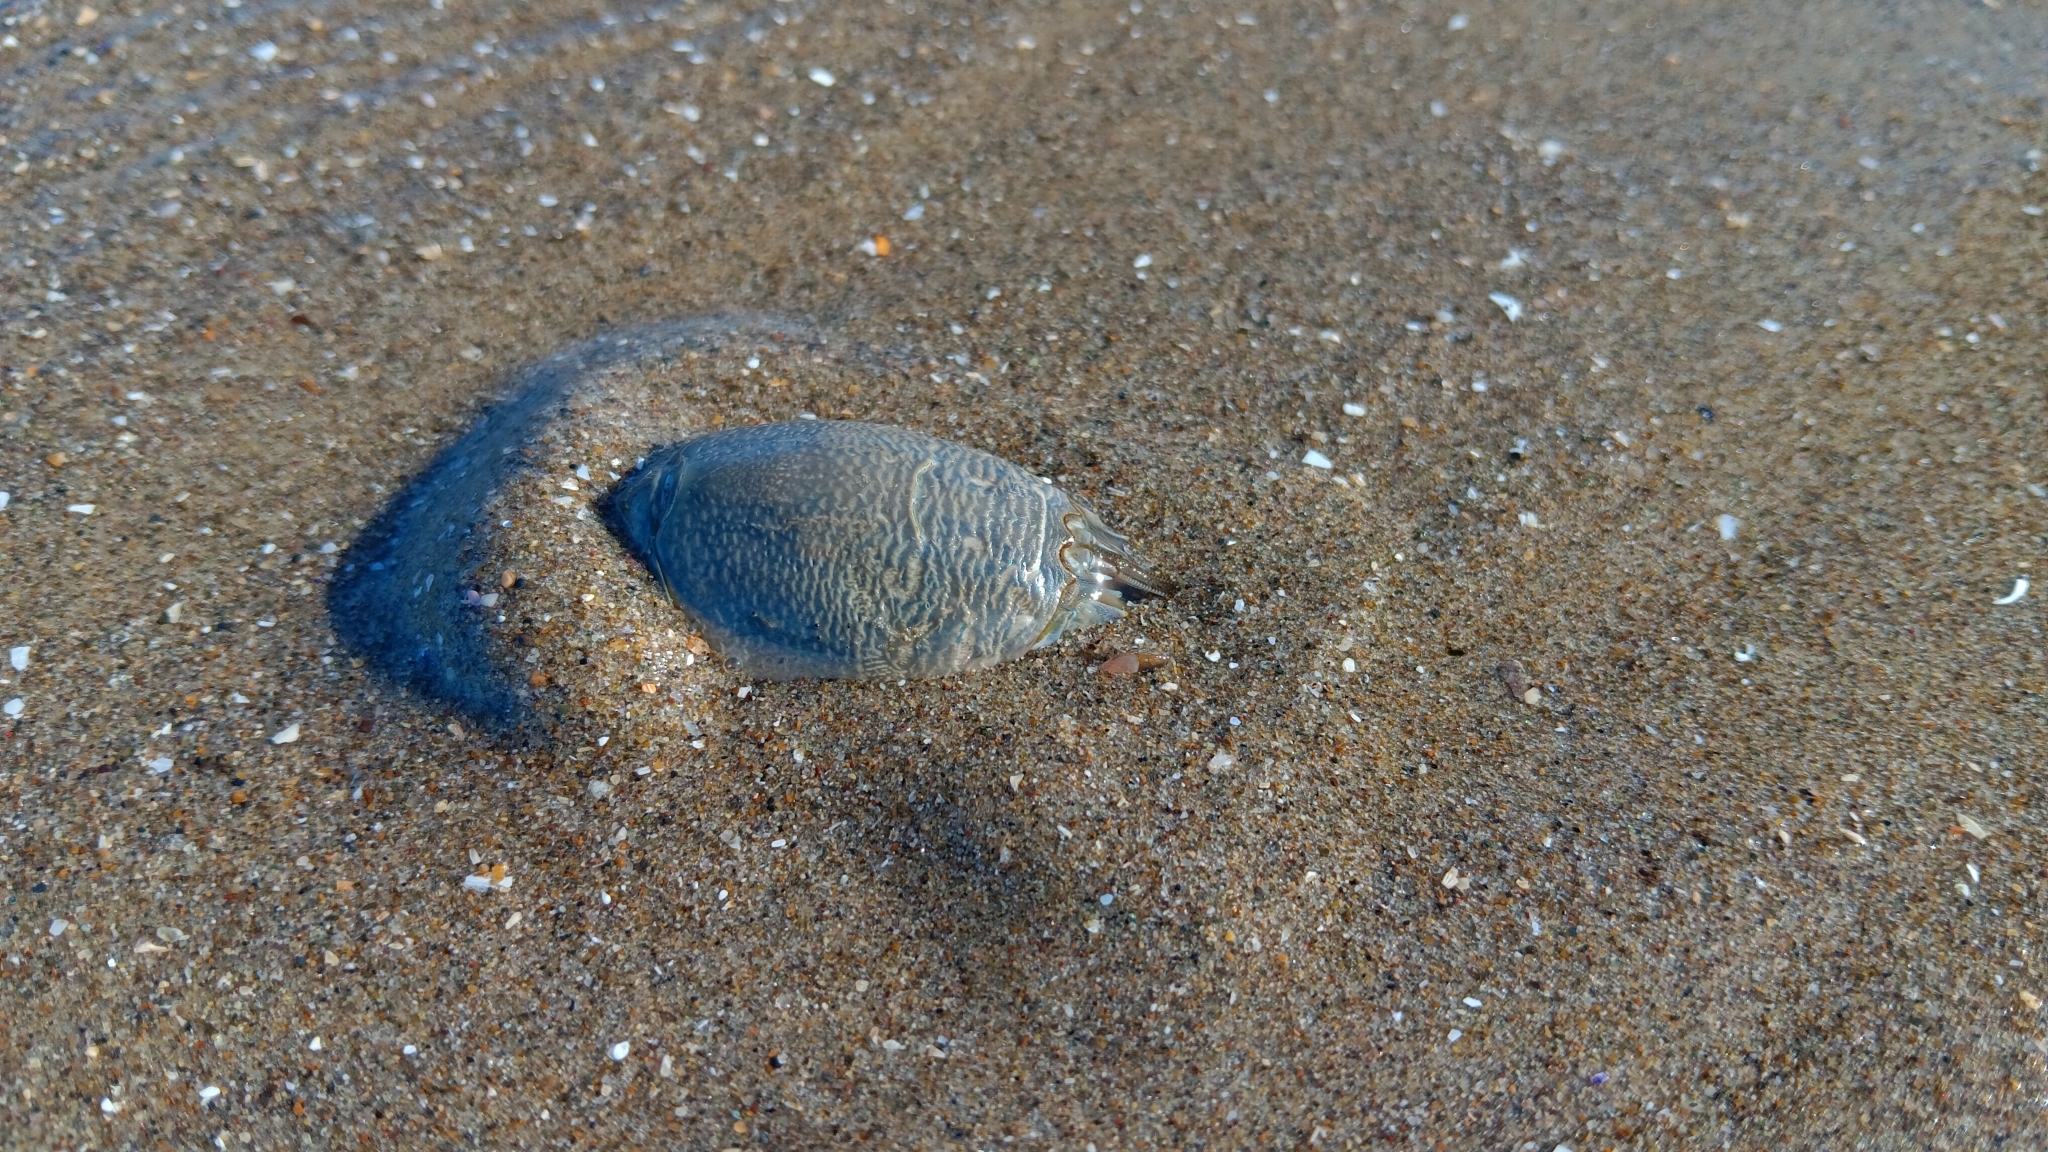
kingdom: Animalia
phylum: Arthropoda
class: Malacostraca
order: Decapoda
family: Hippidae
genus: Emerita
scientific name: Emerita analoga
